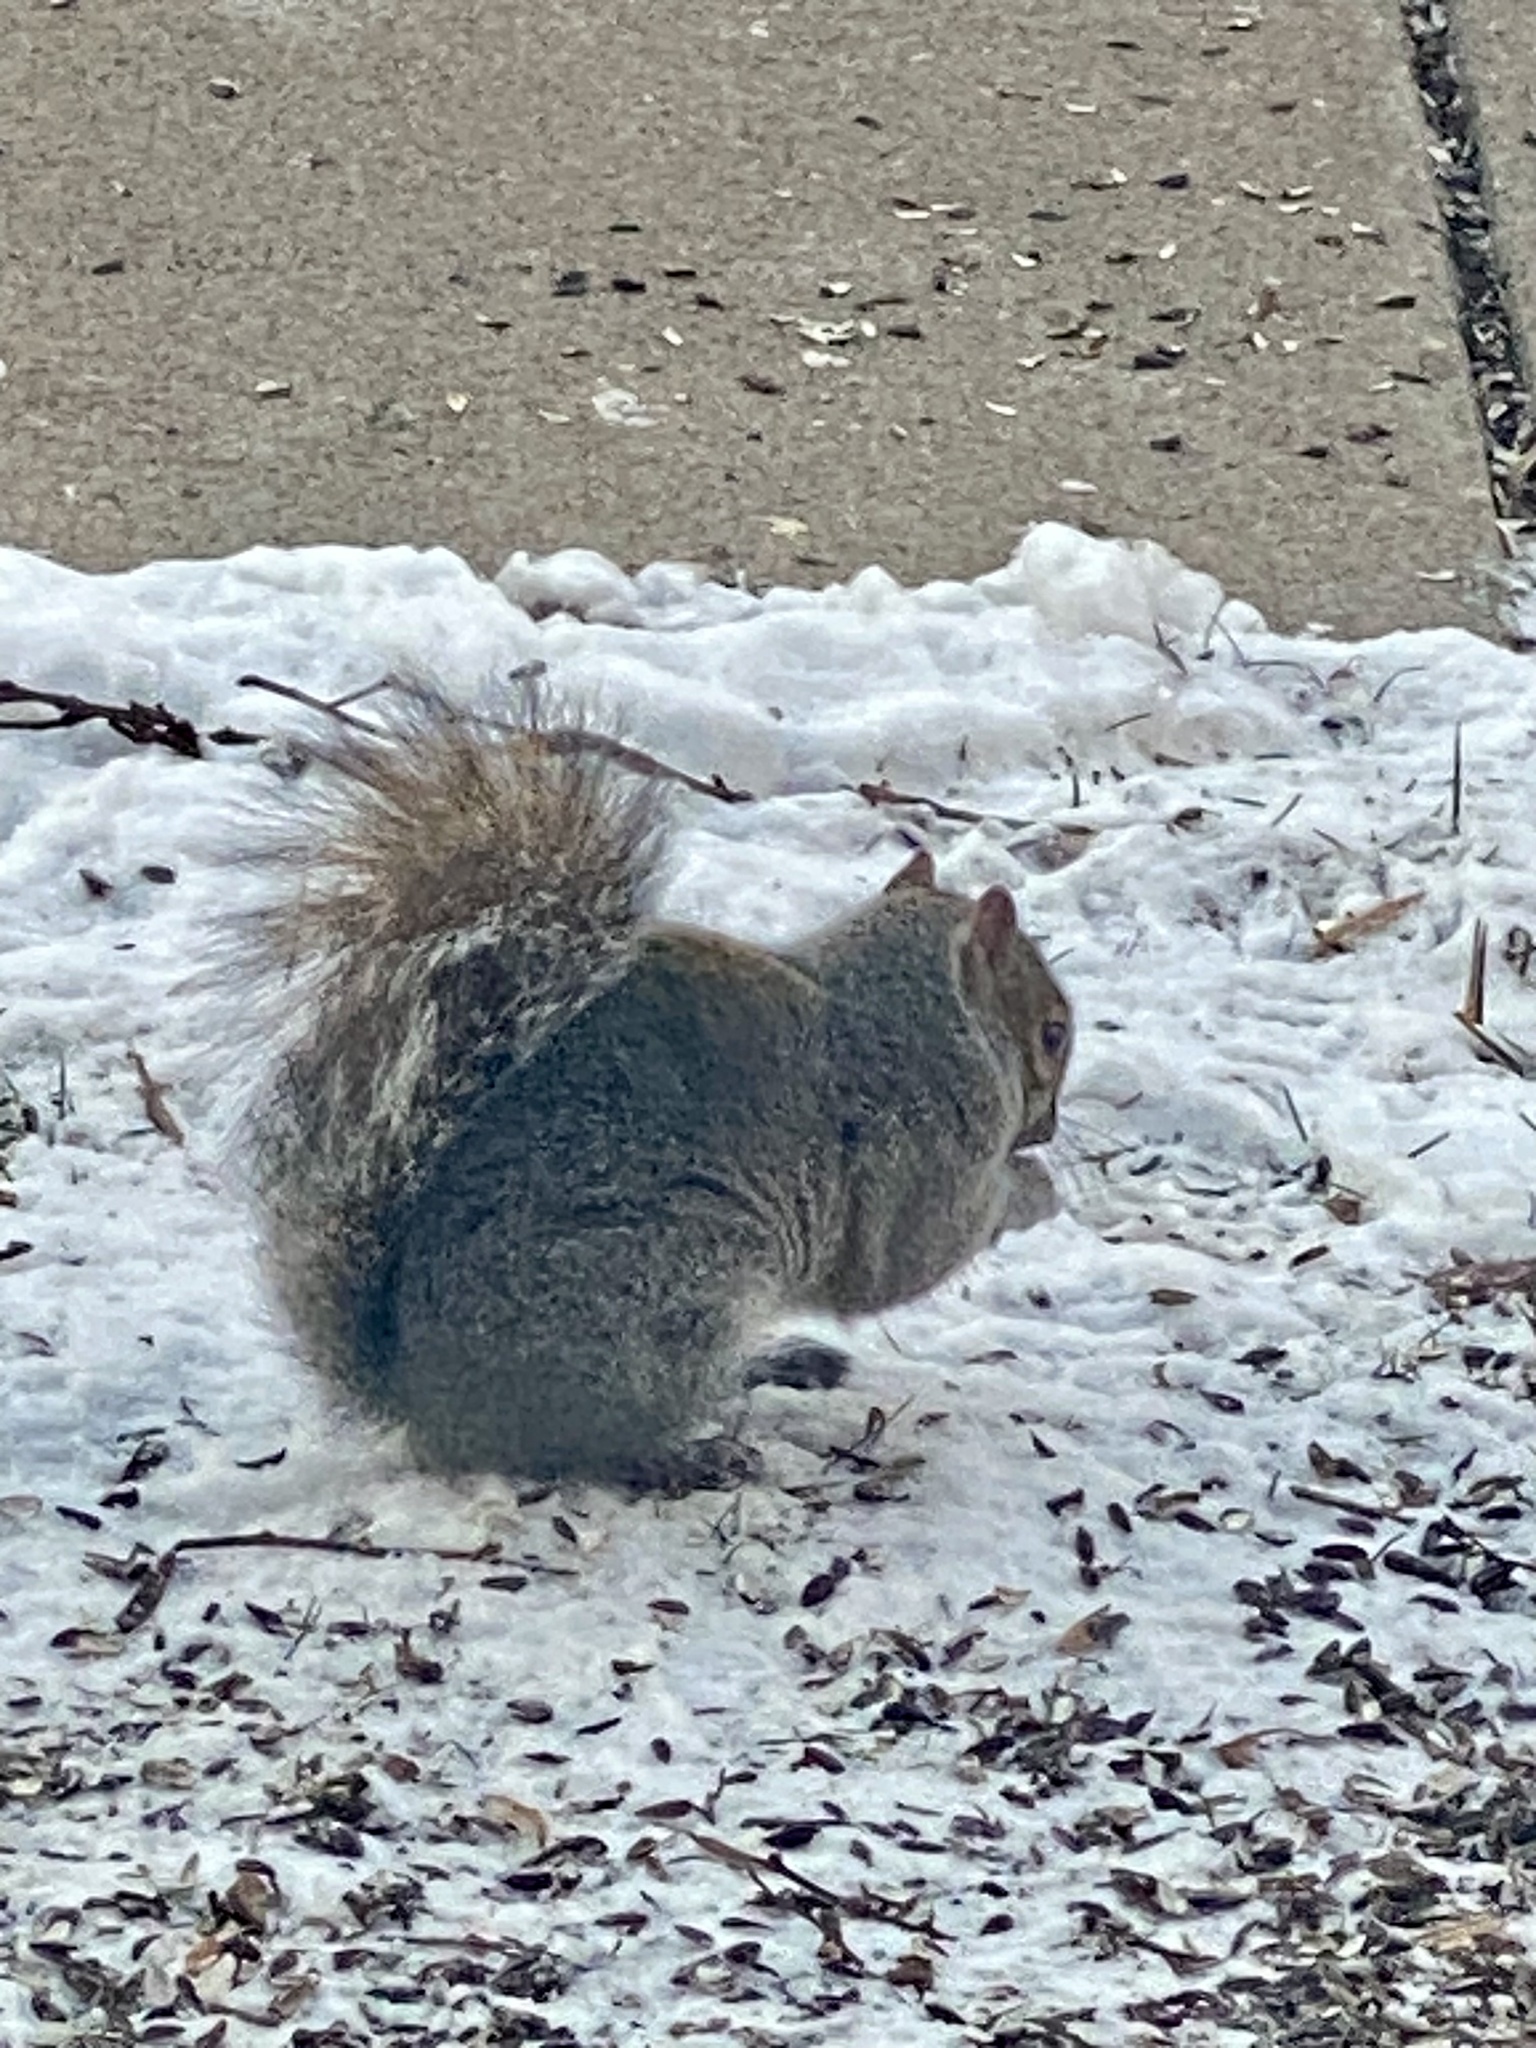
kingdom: Animalia
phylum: Chordata
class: Mammalia
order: Rodentia
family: Sciuridae
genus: Sciurus
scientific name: Sciurus carolinensis
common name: Eastern gray squirrel
